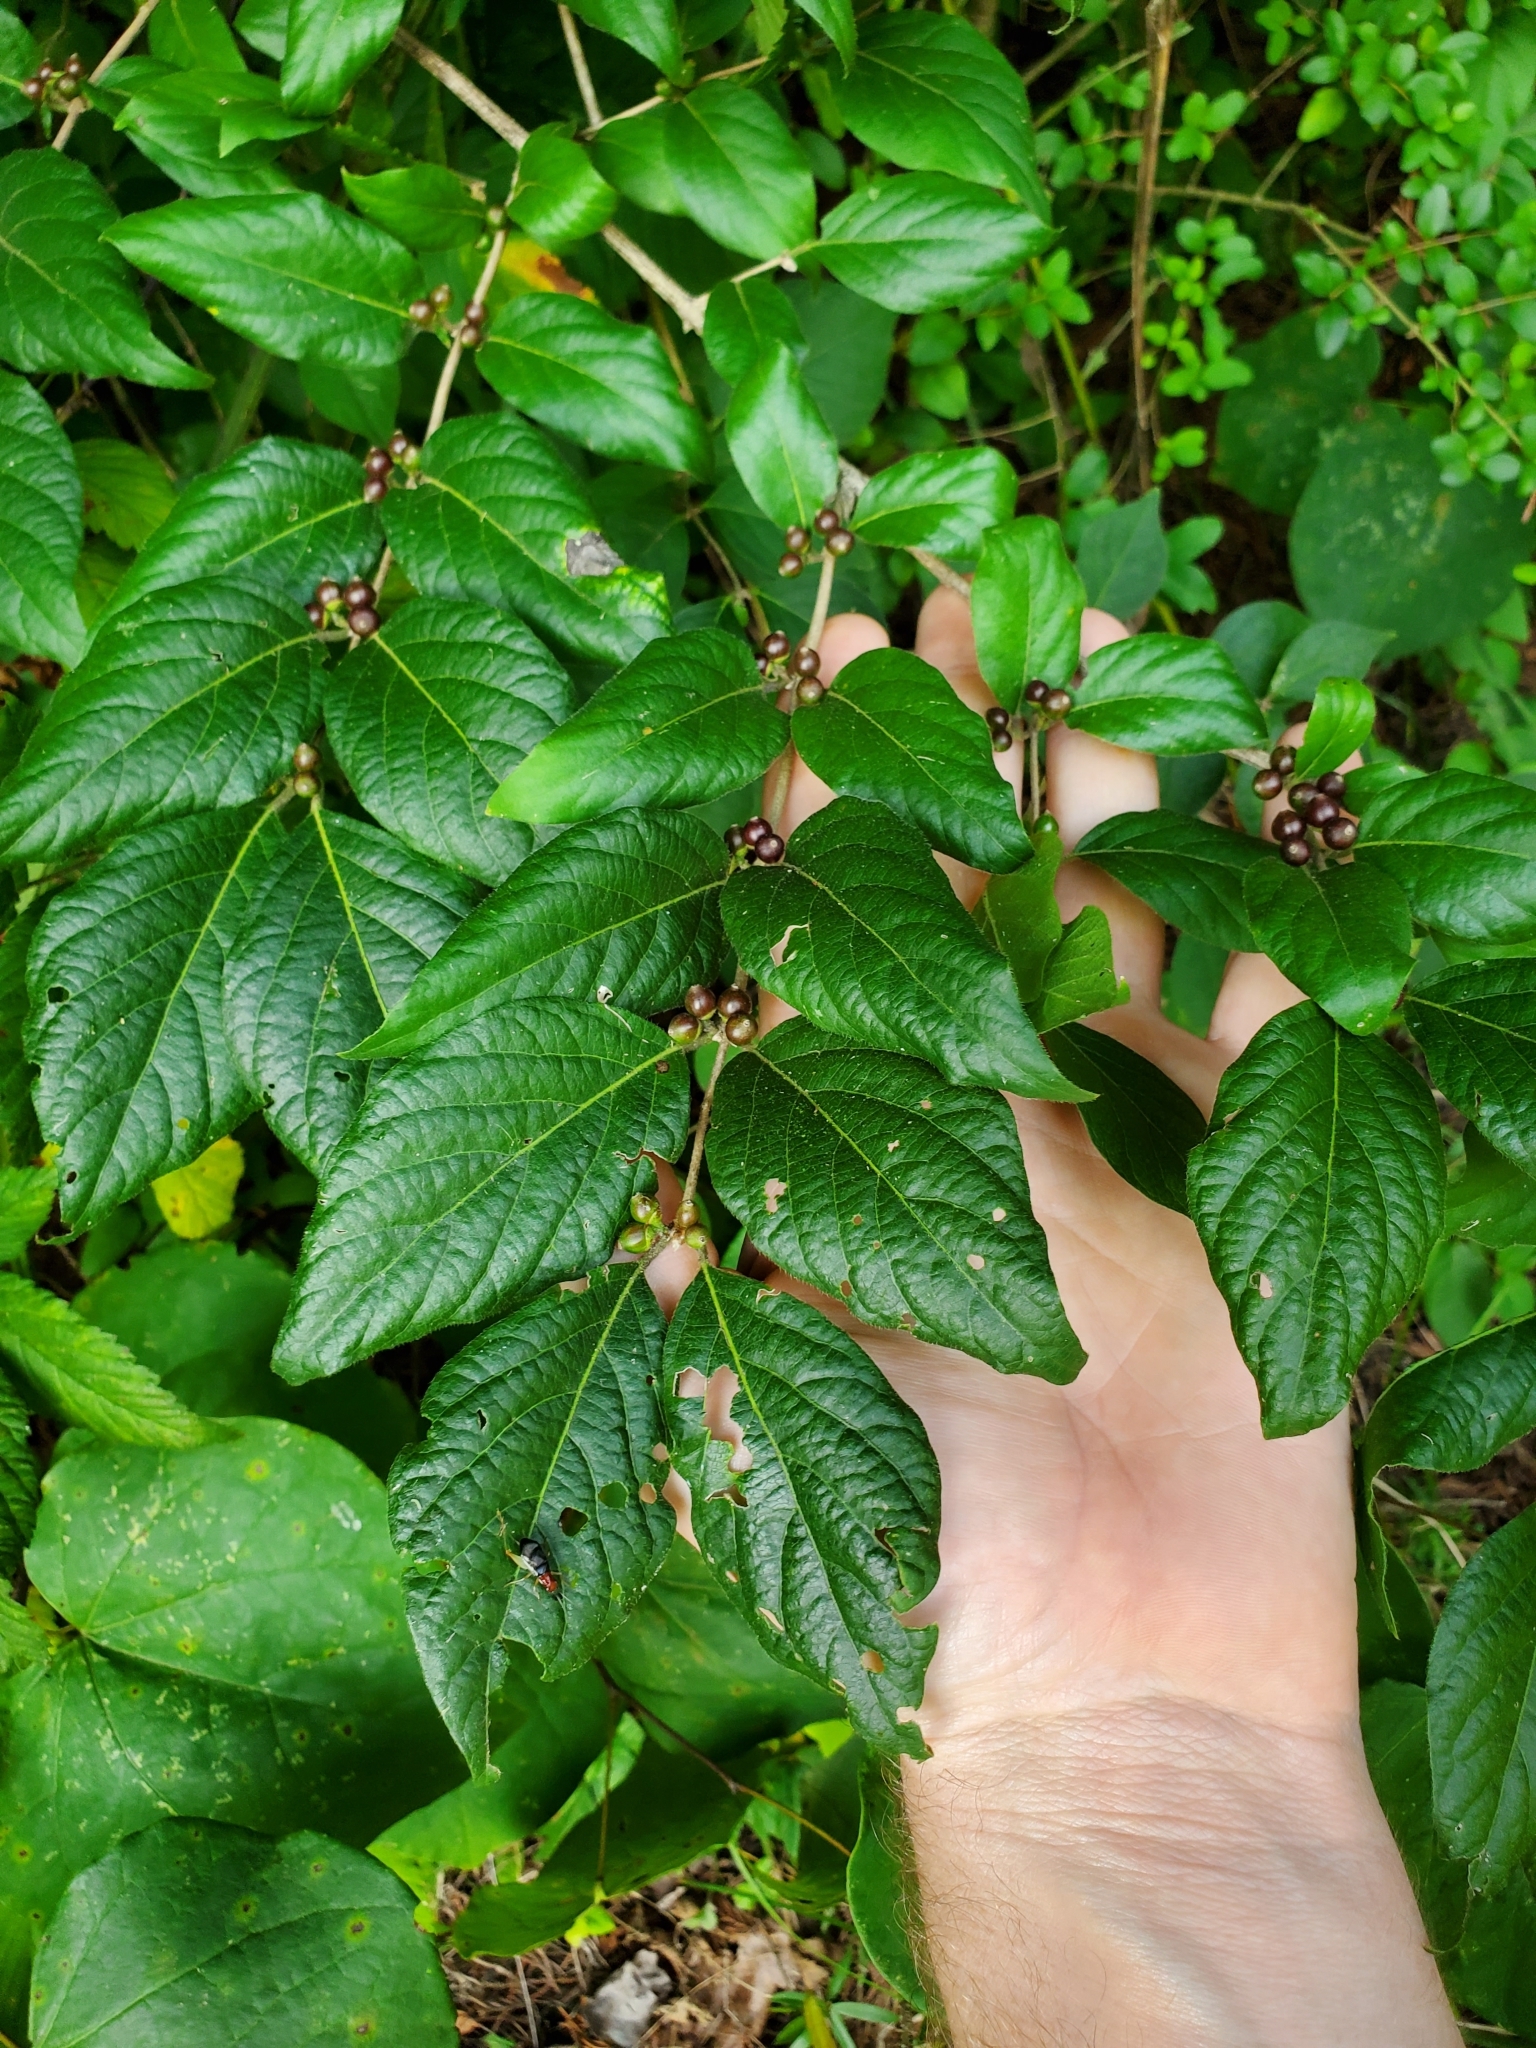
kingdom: Plantae
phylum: Tracheophyta
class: Magnoliopsida
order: Dipsacales
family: Caprifoliaceae
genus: Lonicera
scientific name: Lonicera maackii
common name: Amur honeysuckle
